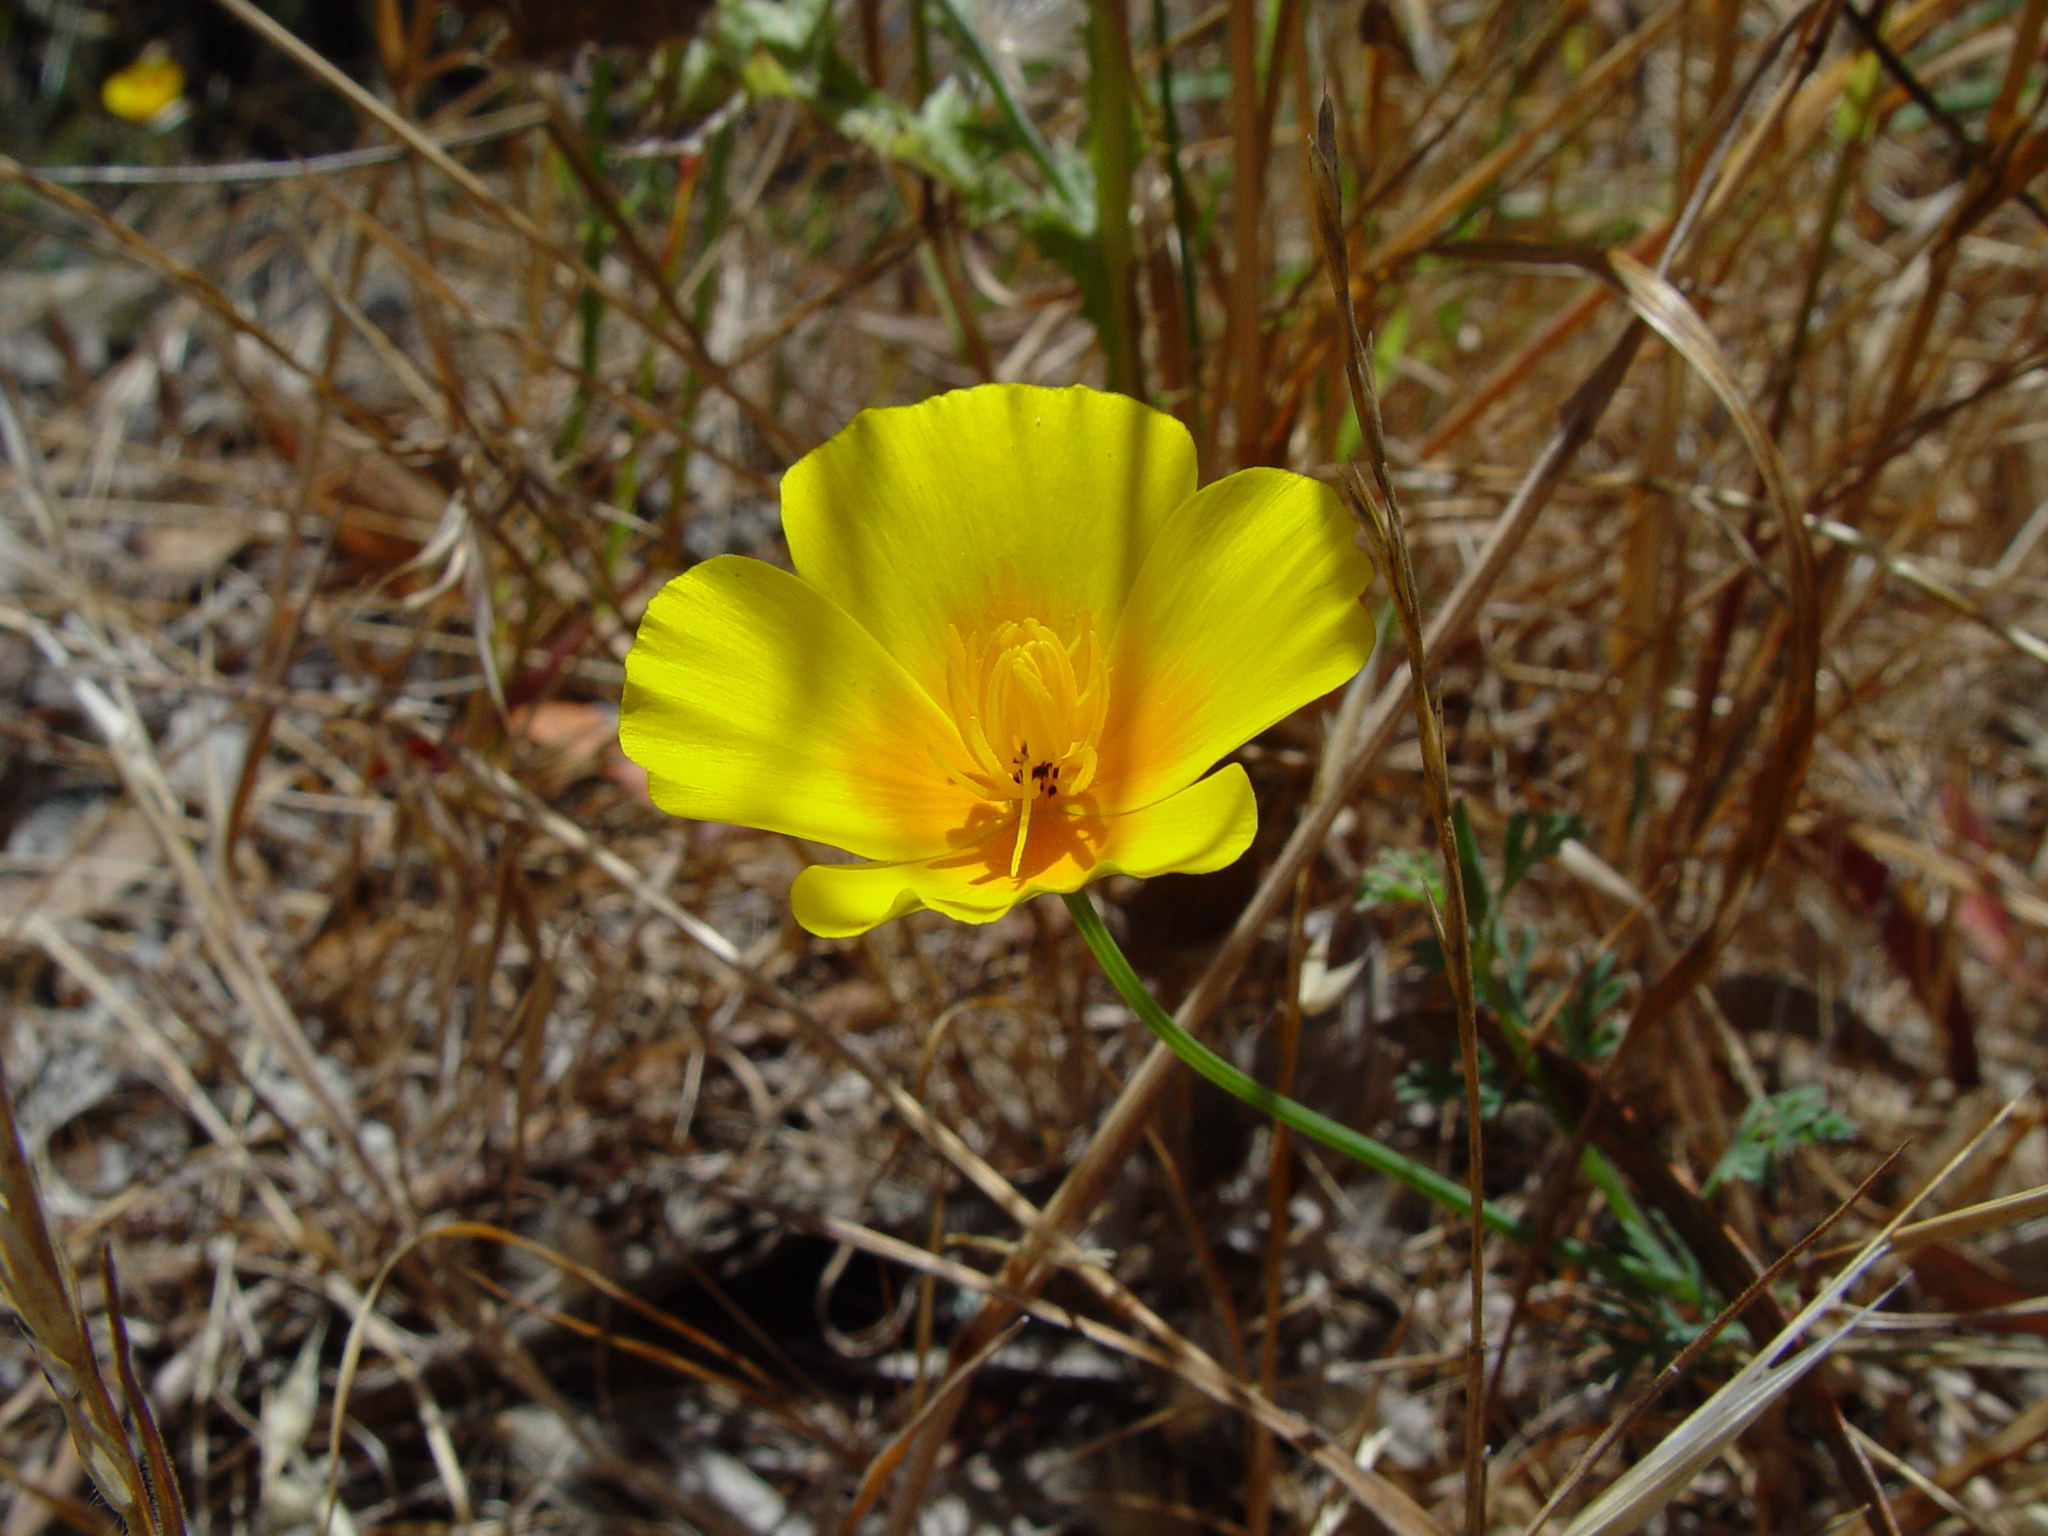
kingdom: Plantae
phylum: Tracheophyta
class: Magnoliopsida
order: Ranunculales
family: Papaveraceae
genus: Eschscholzia
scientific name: Eschscholzia californica
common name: California poppy
